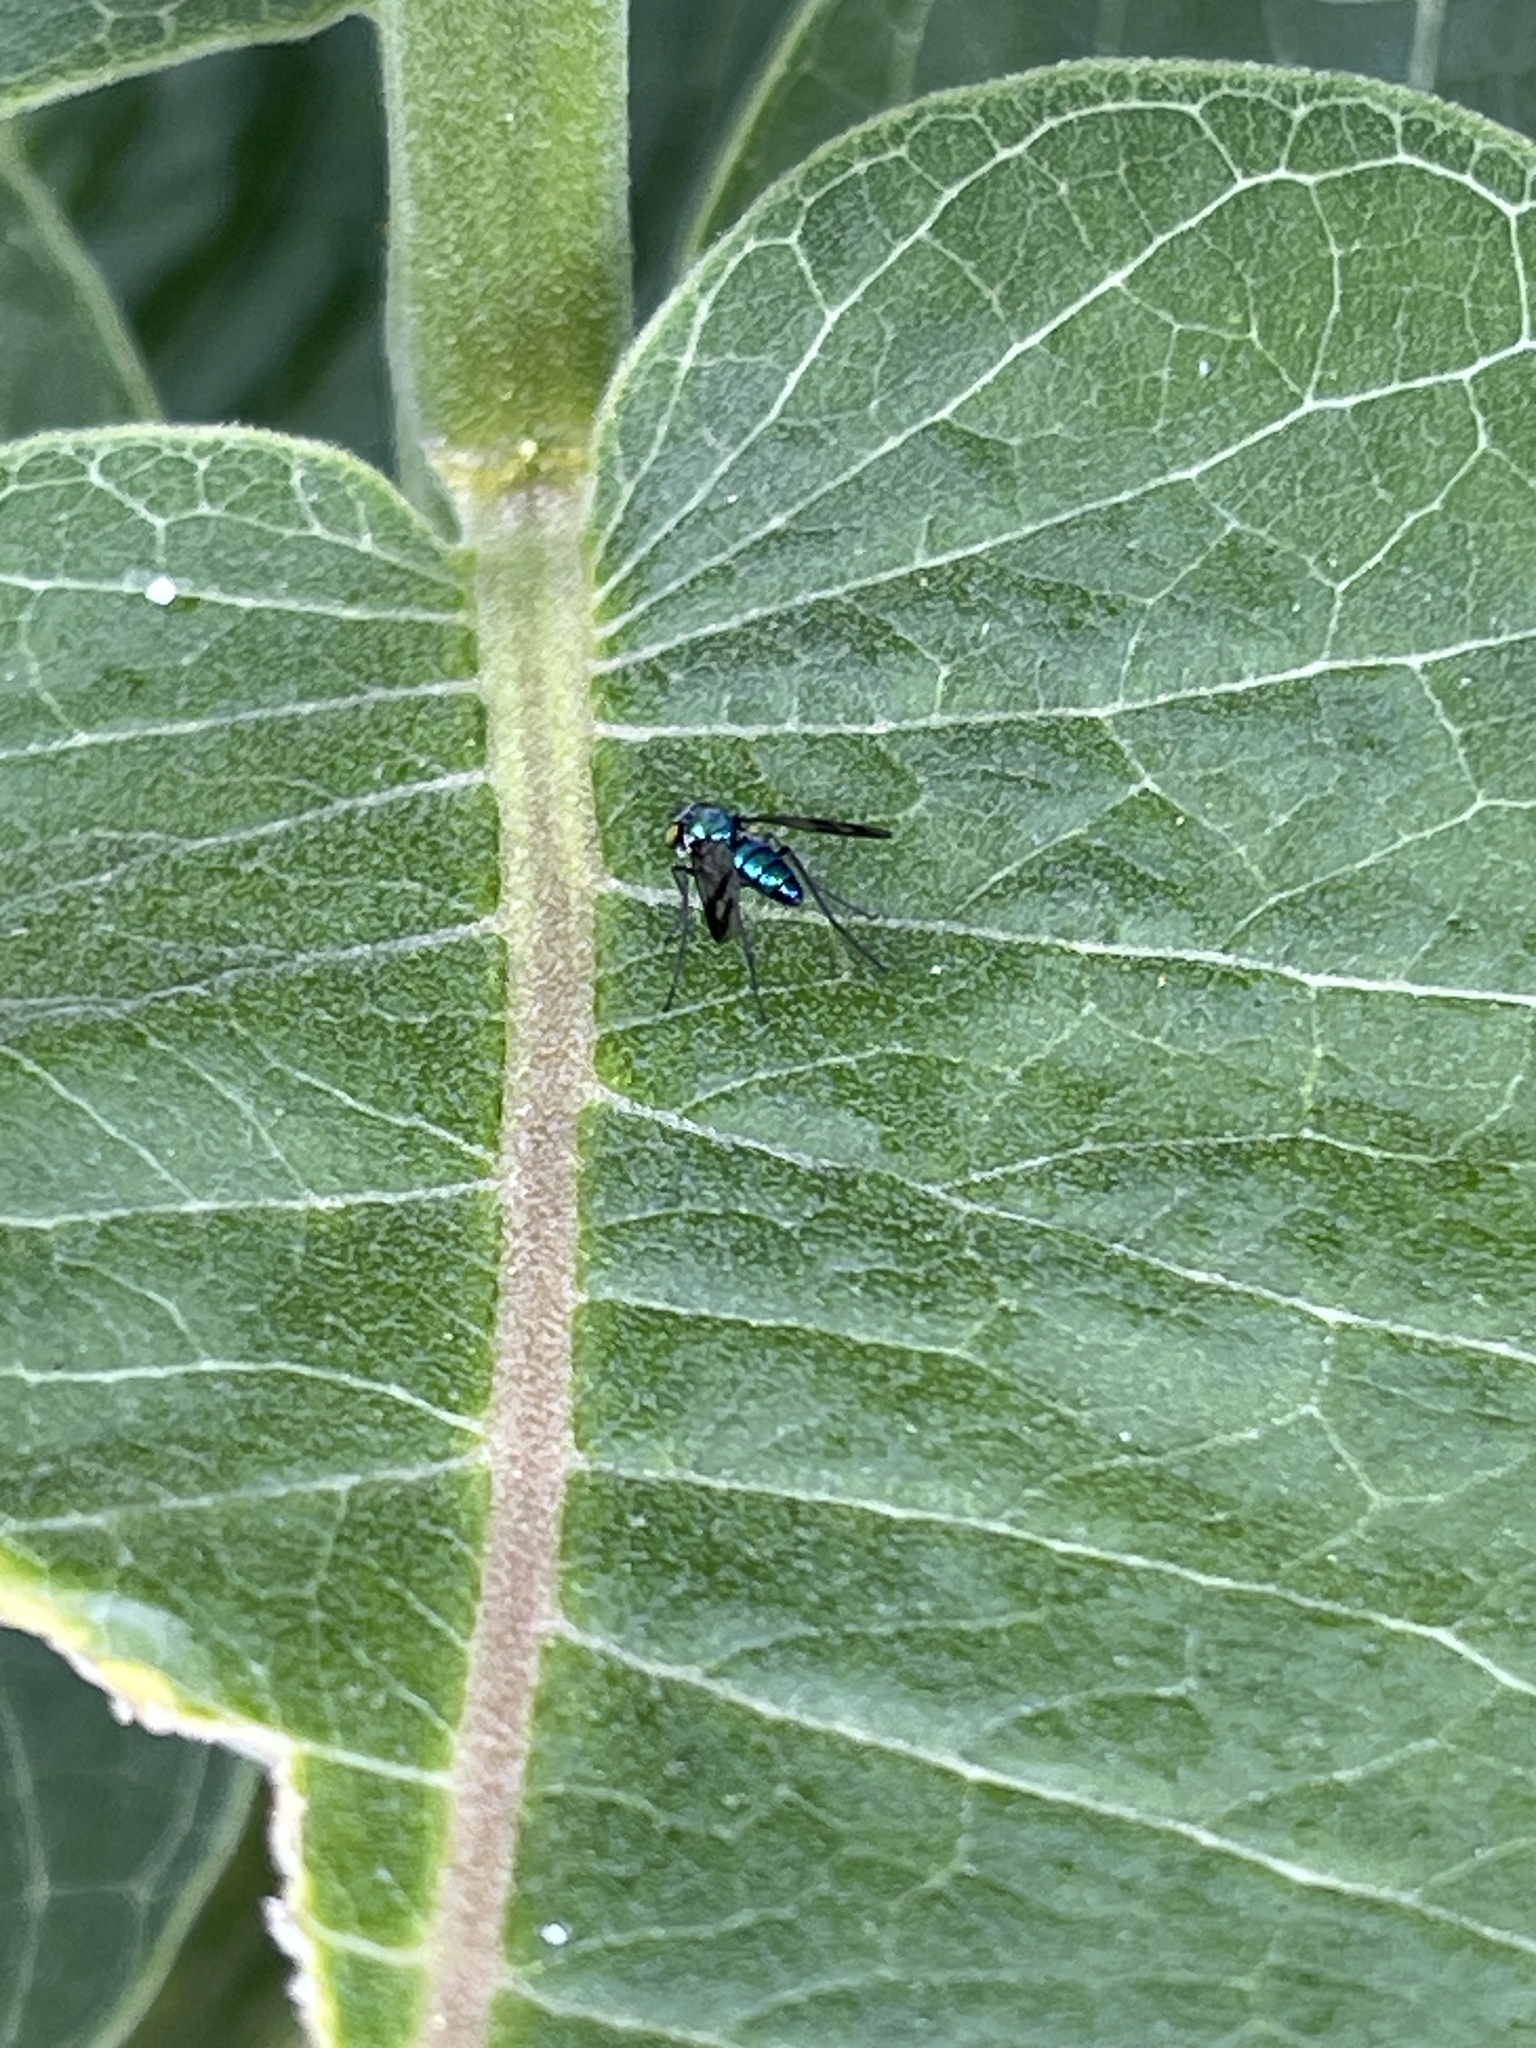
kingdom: Animalia
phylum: Arthropoda
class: Insecta
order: Diptera
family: Dolichopodidae
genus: Condylostylus
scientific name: Condylostylus patibulatus
